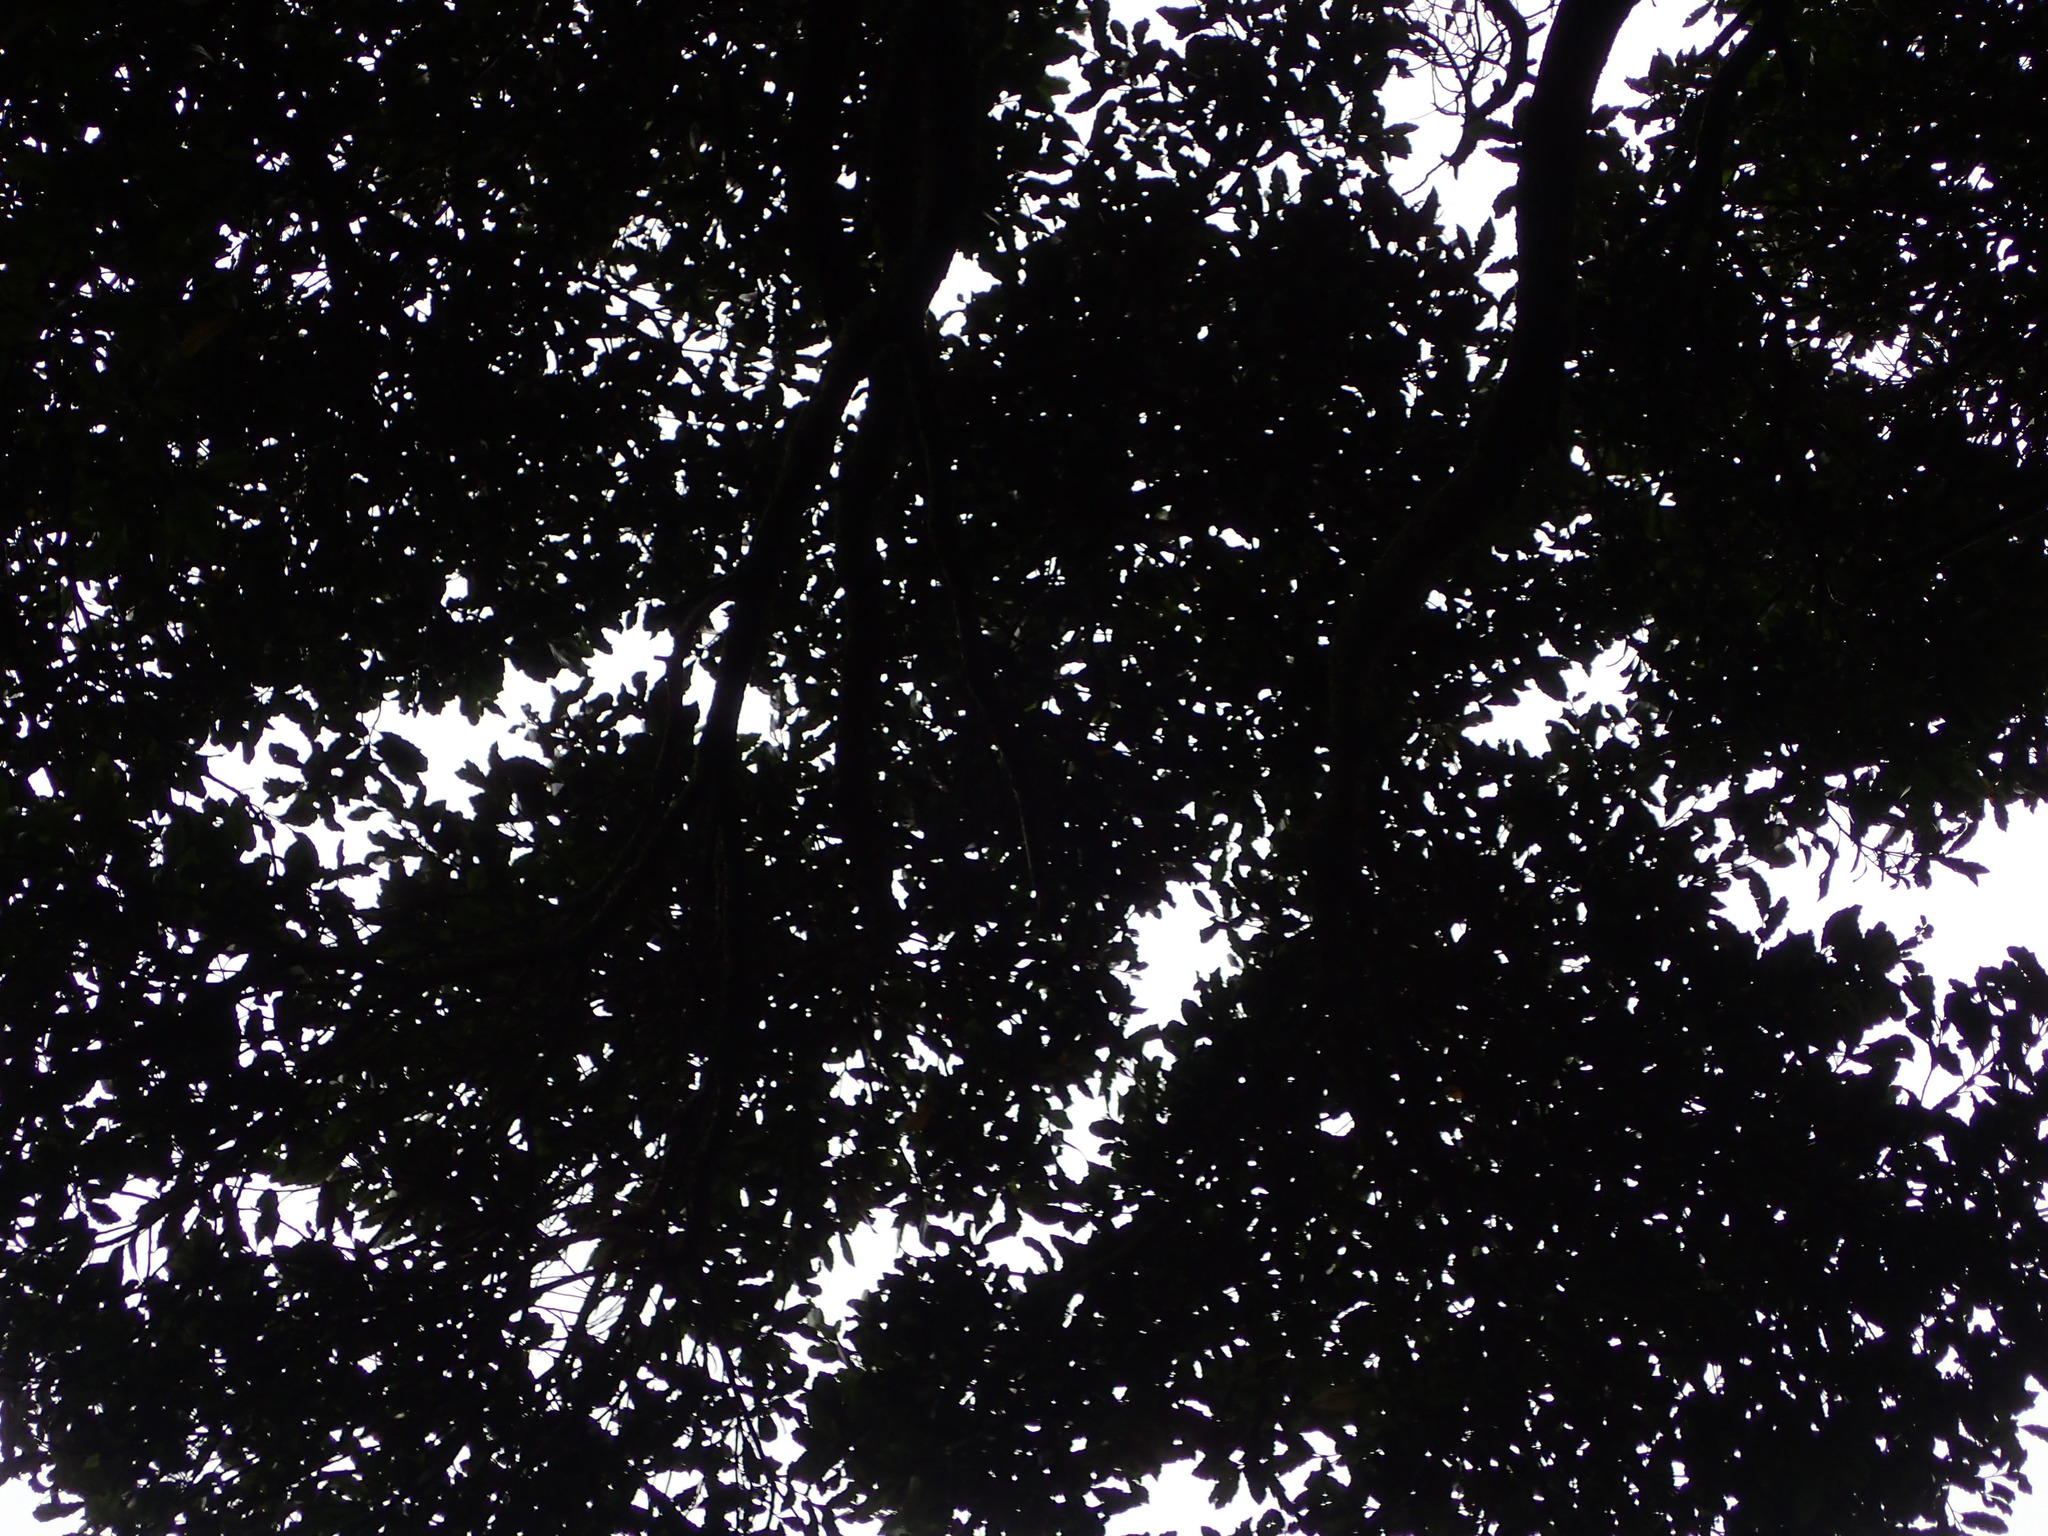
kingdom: Plantae
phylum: Tracheophyta
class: Magnoliopsida
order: Oxalidales
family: Elaeocarpaceae
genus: Elaeocarpus
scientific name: Elaeocarpus hookerianus
